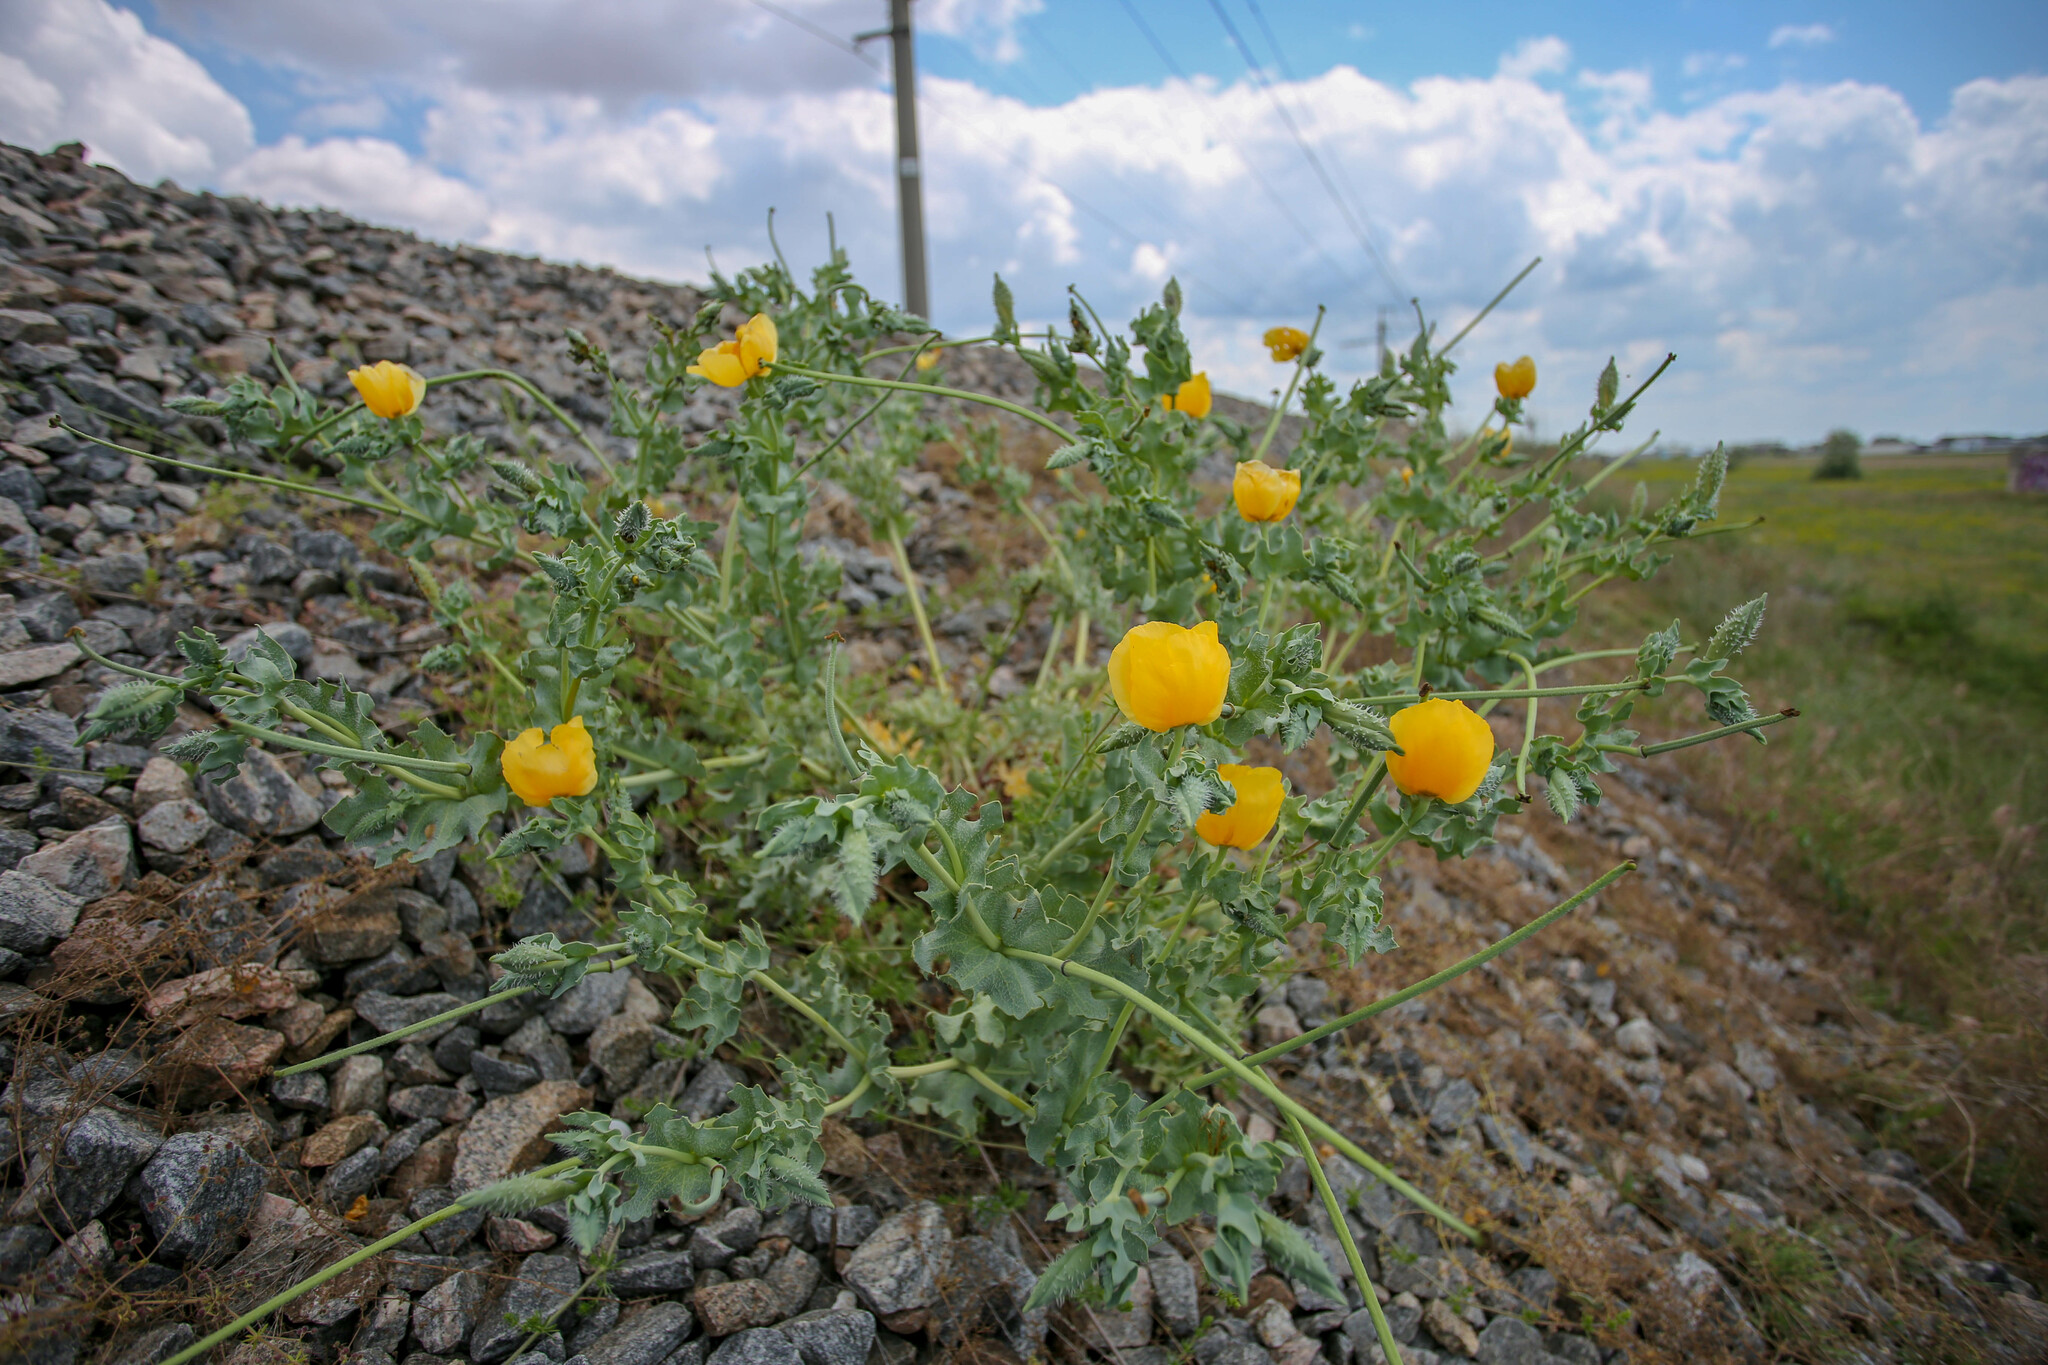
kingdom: Plantae
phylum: Tracheophyta
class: Magnoliopsida
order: Ranunculales
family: Papaveraceae
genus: Glaucium
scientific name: Glaucium flavum
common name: Yellow horned-poppy
